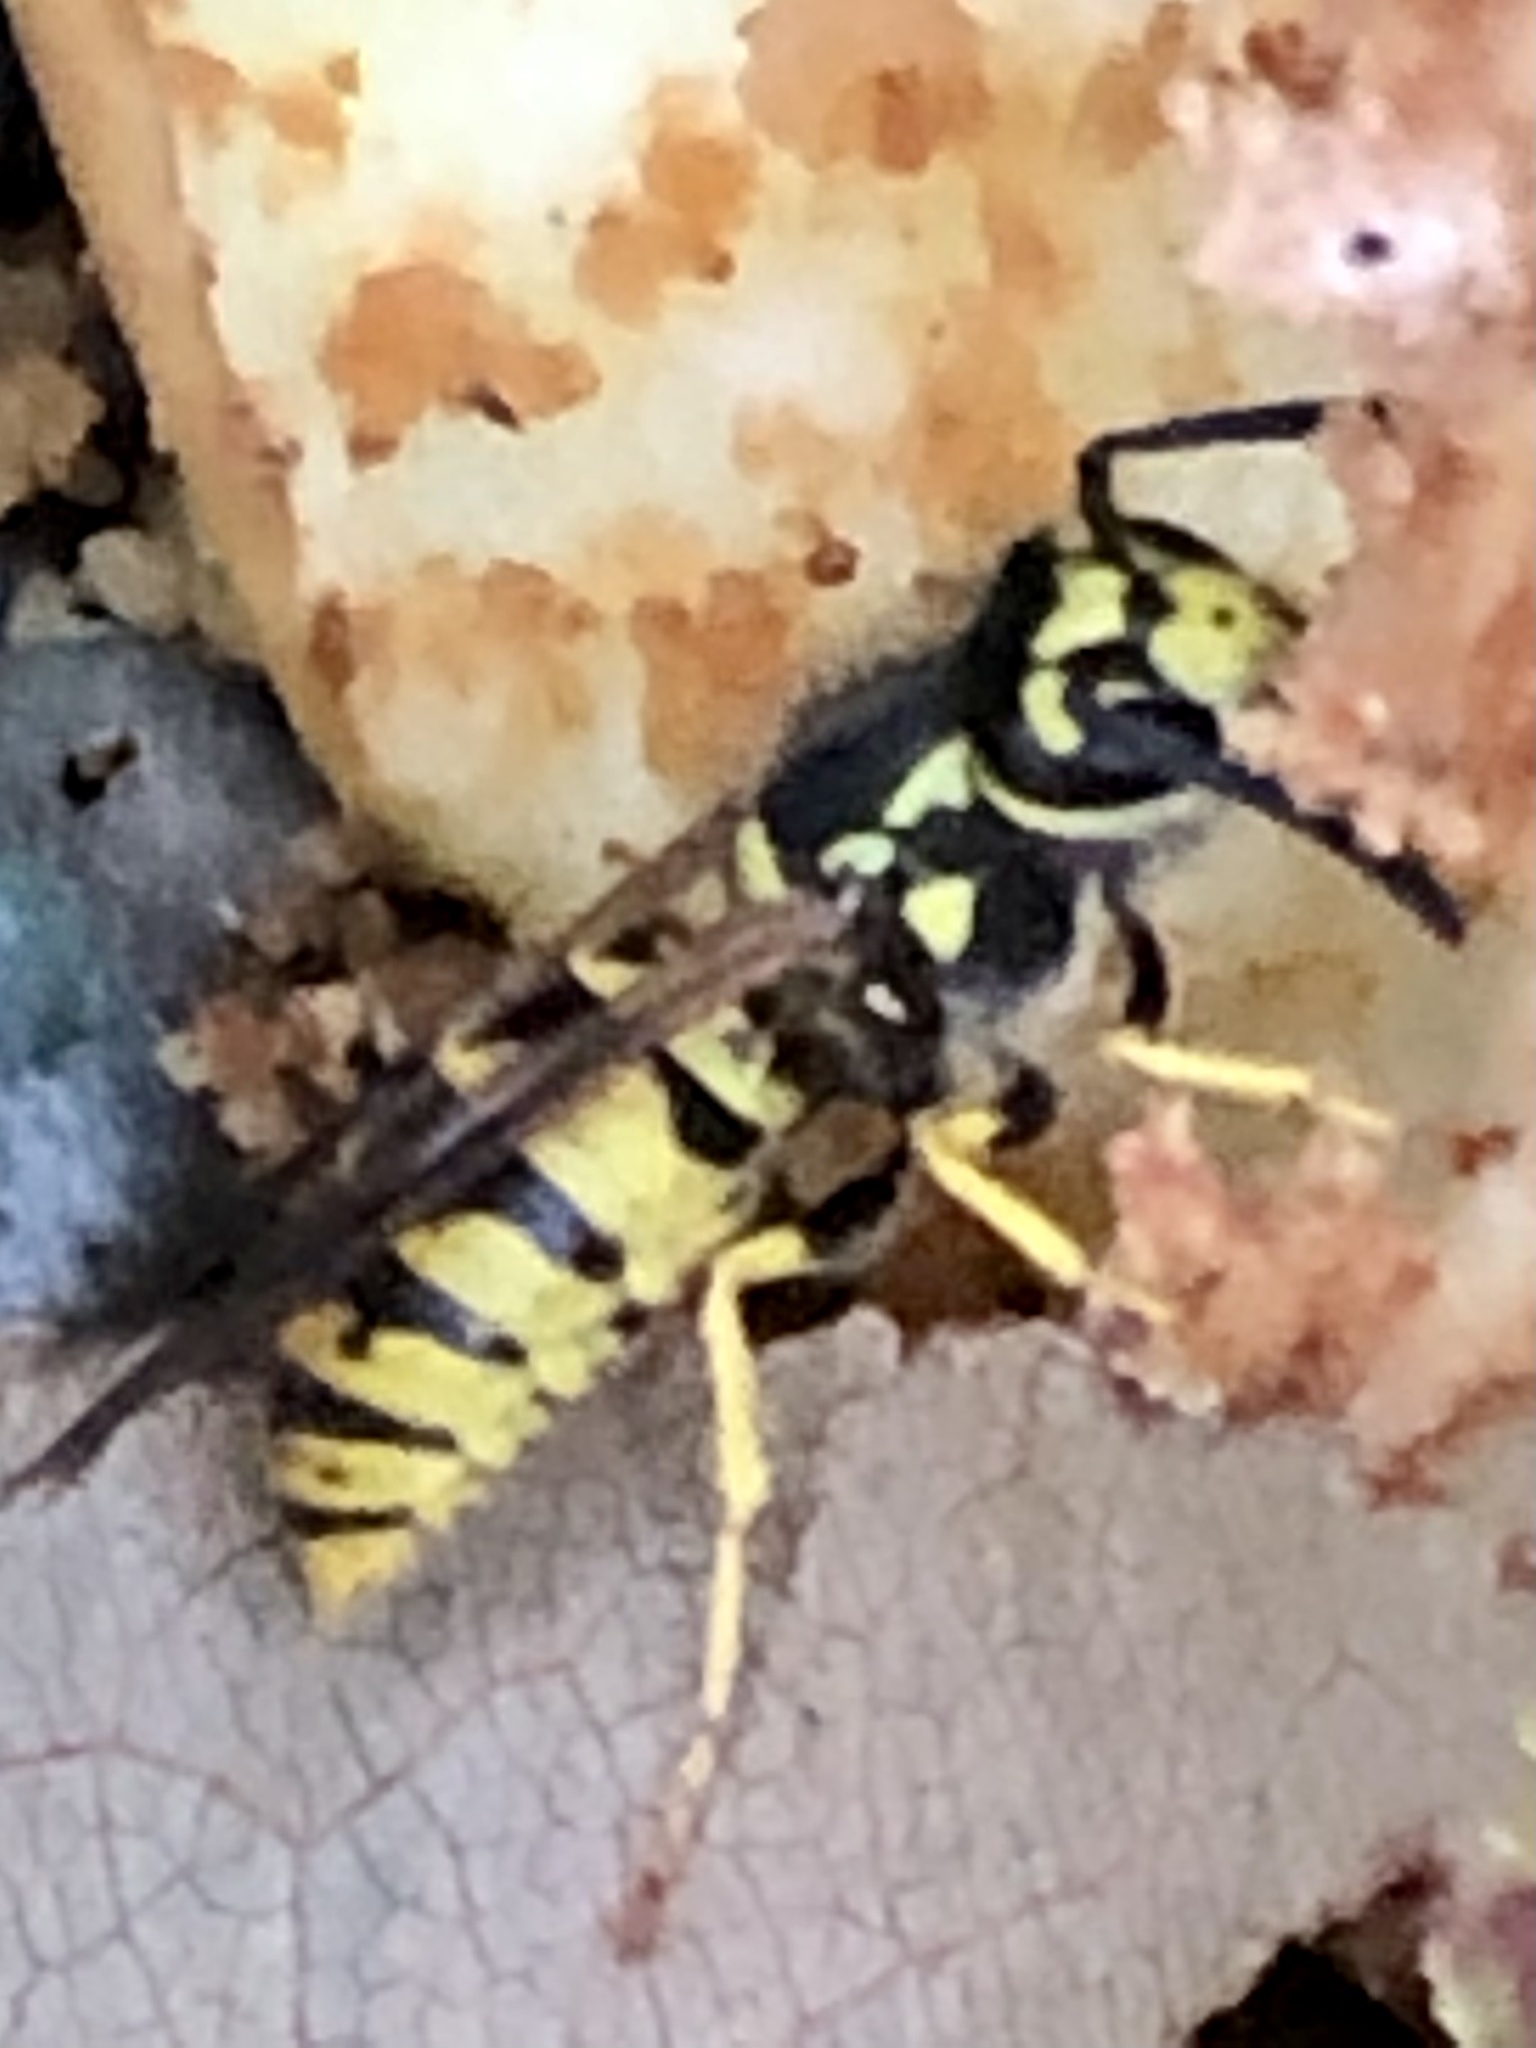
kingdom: Animalia
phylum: Arthropoda
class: Insecta
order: Hymenoptera
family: Vespidae
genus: Vespula
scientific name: Vespula germanica
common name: German wasp
